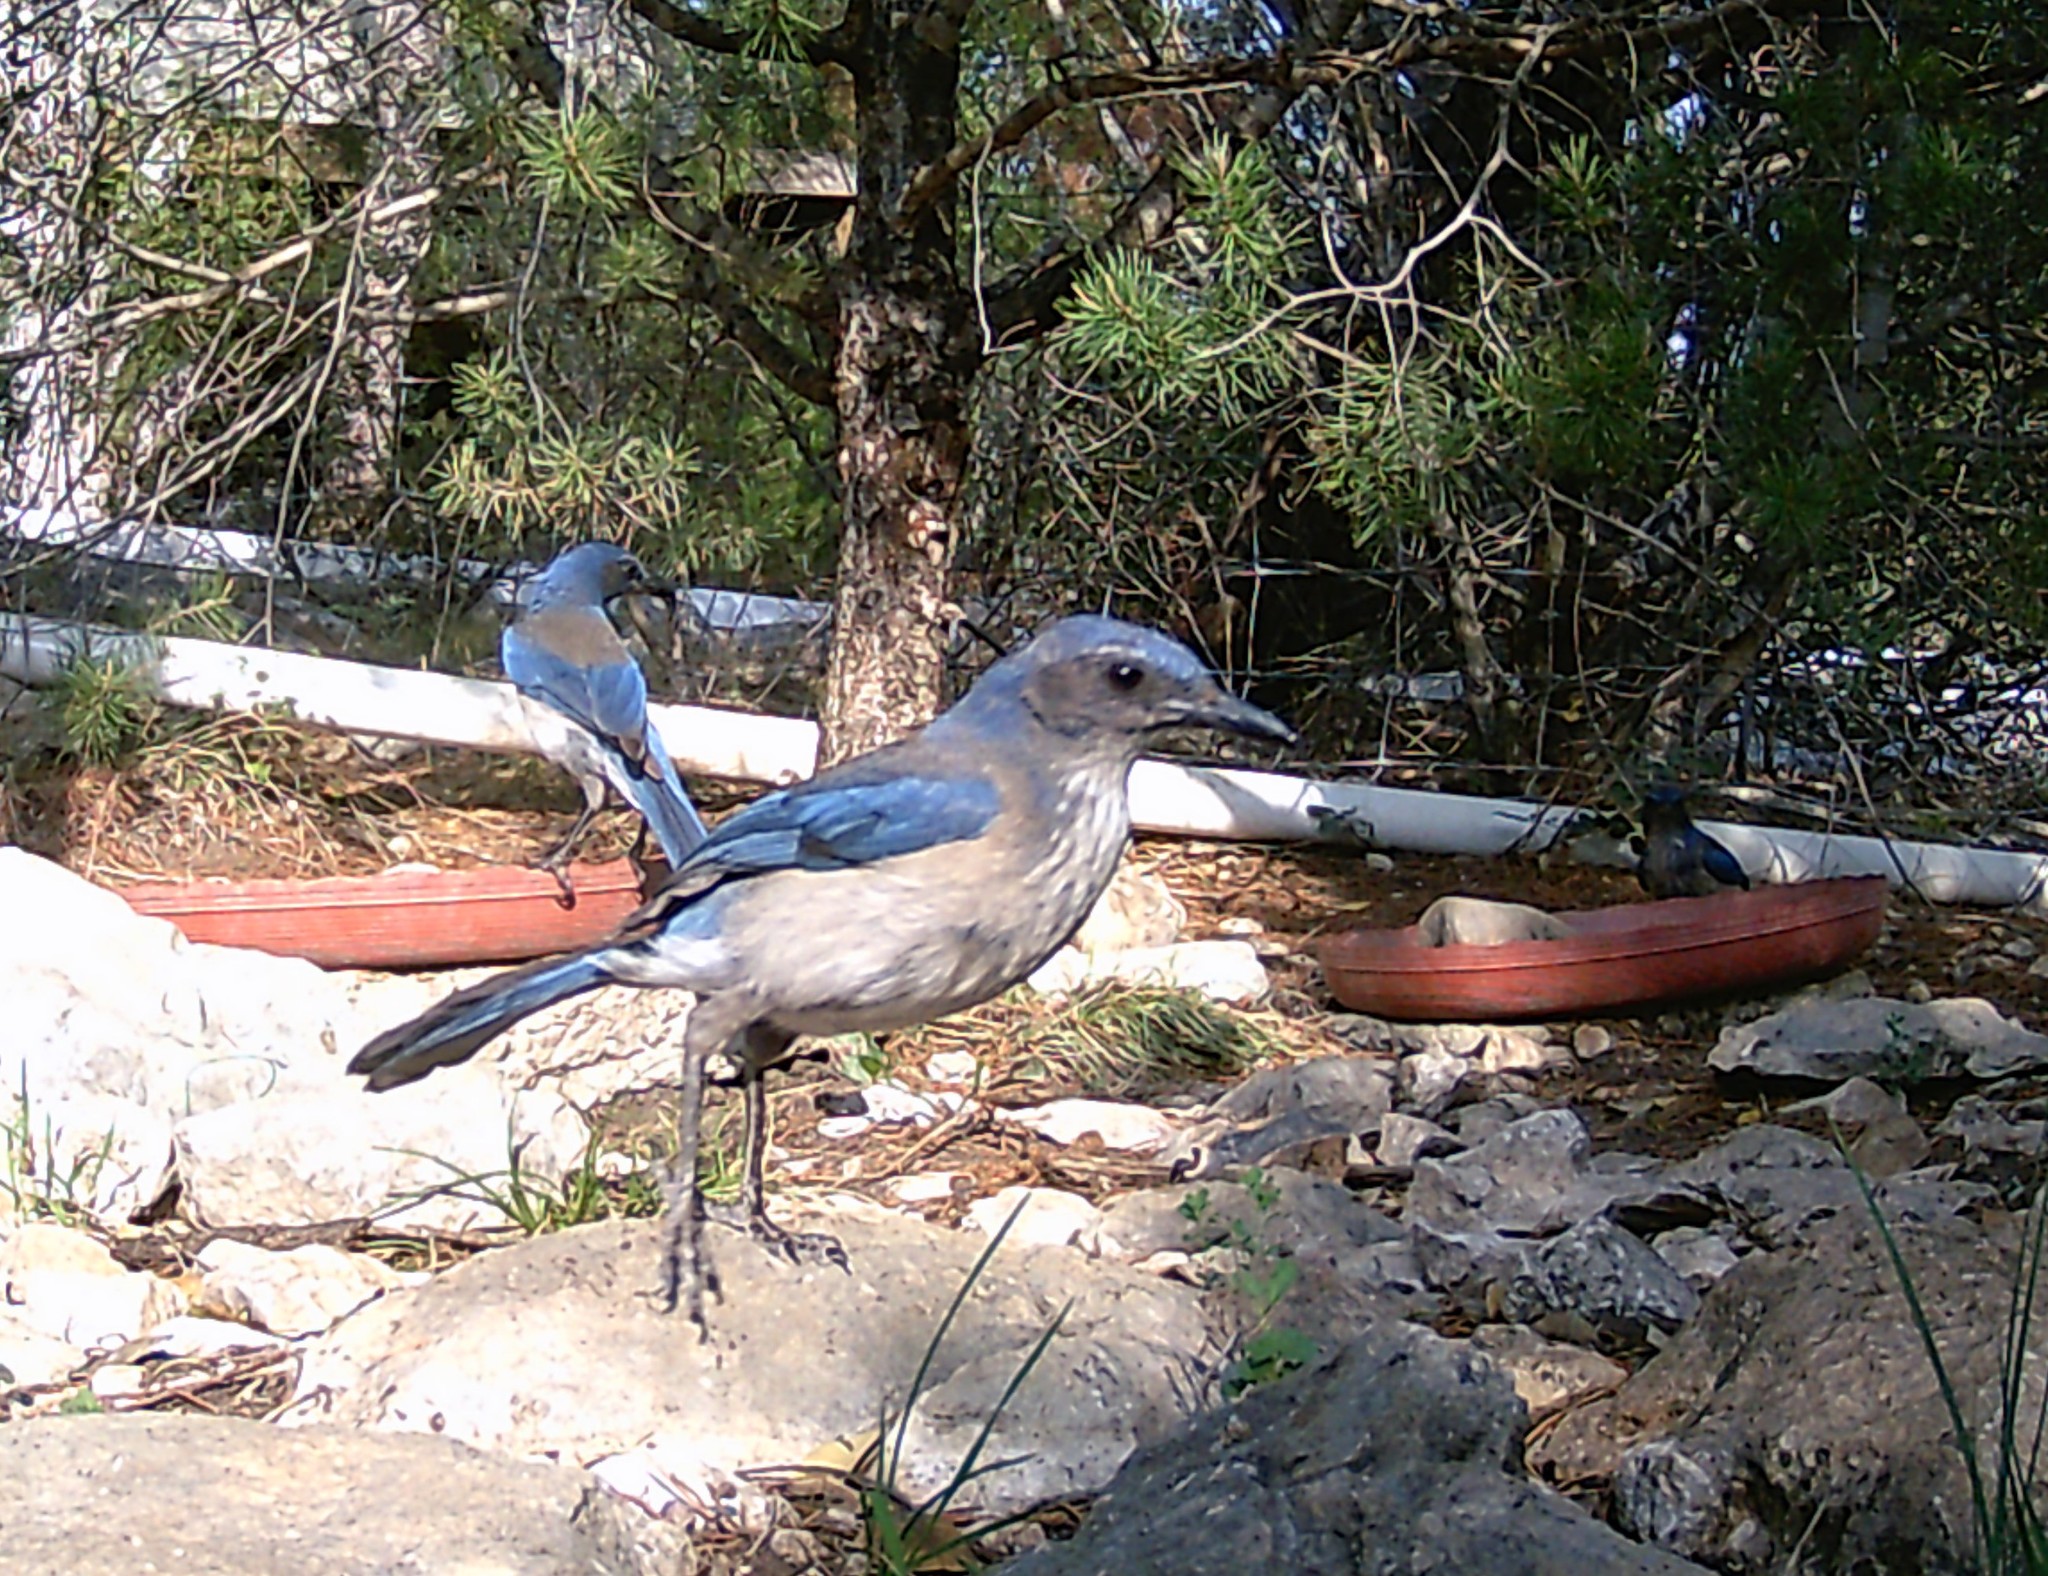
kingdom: Animalia
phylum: Chordata
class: Aves
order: Passeriformes
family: Corvidae
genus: Aphelocoma
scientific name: Aphelocoma woodhouseii
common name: Woodhouse's scrub-jay
